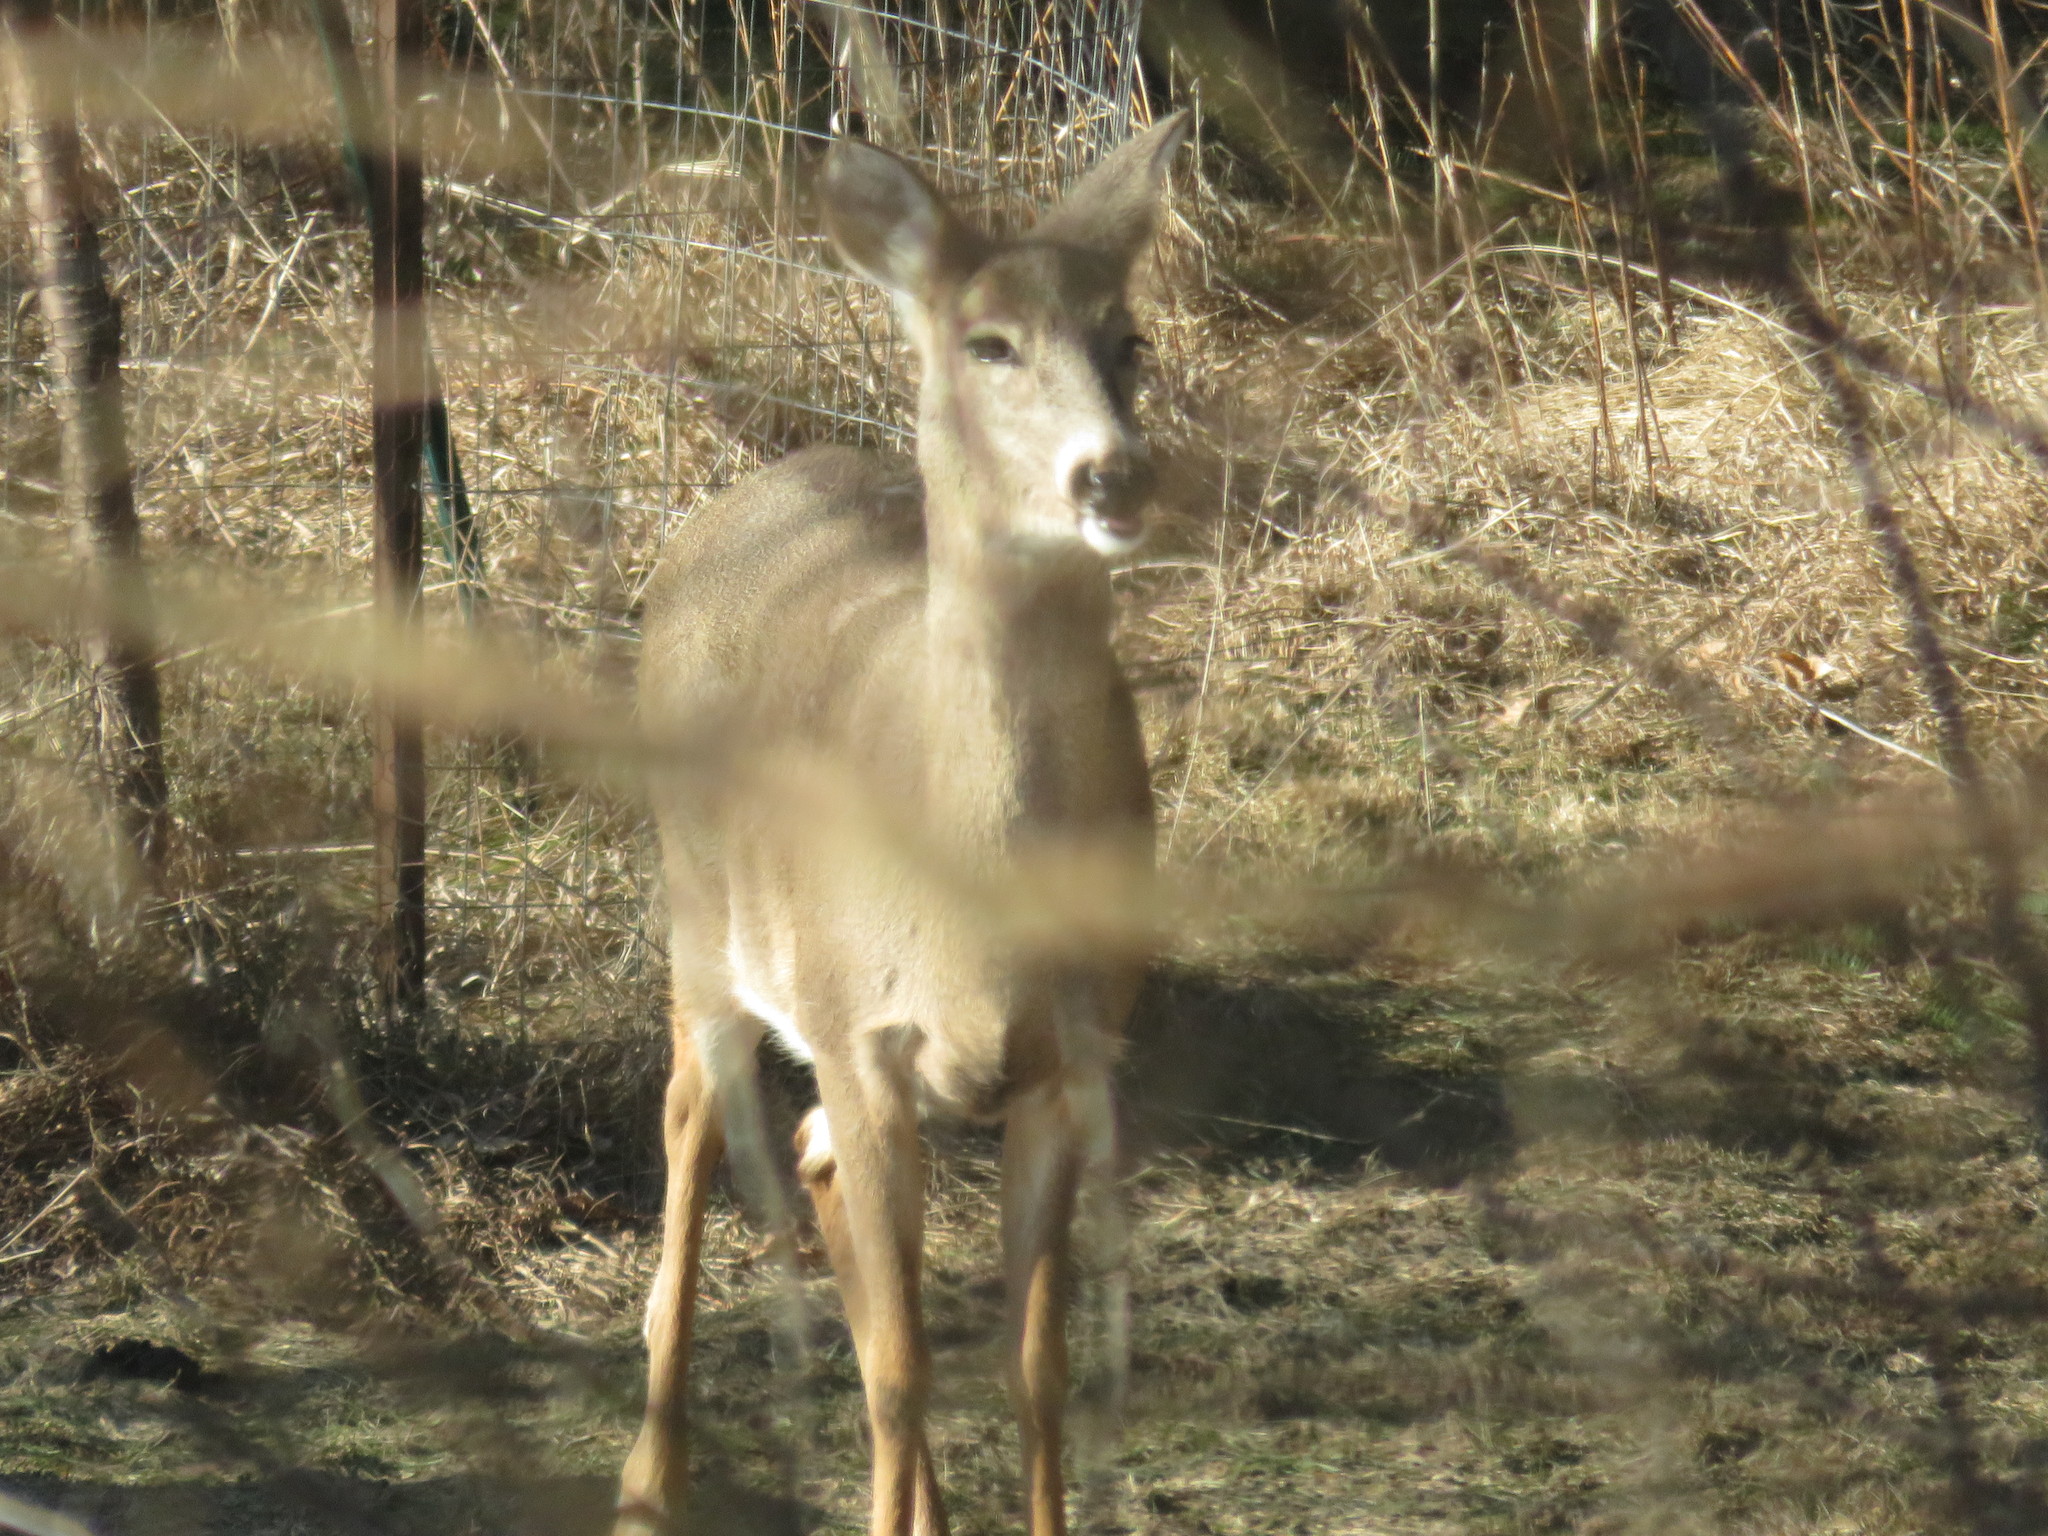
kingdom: Animalia
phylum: Chordata
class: Mammalia
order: Artiodactyla
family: Cervidae
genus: Odocoileus
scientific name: Odocoileus virginianus
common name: White-tailed deer
